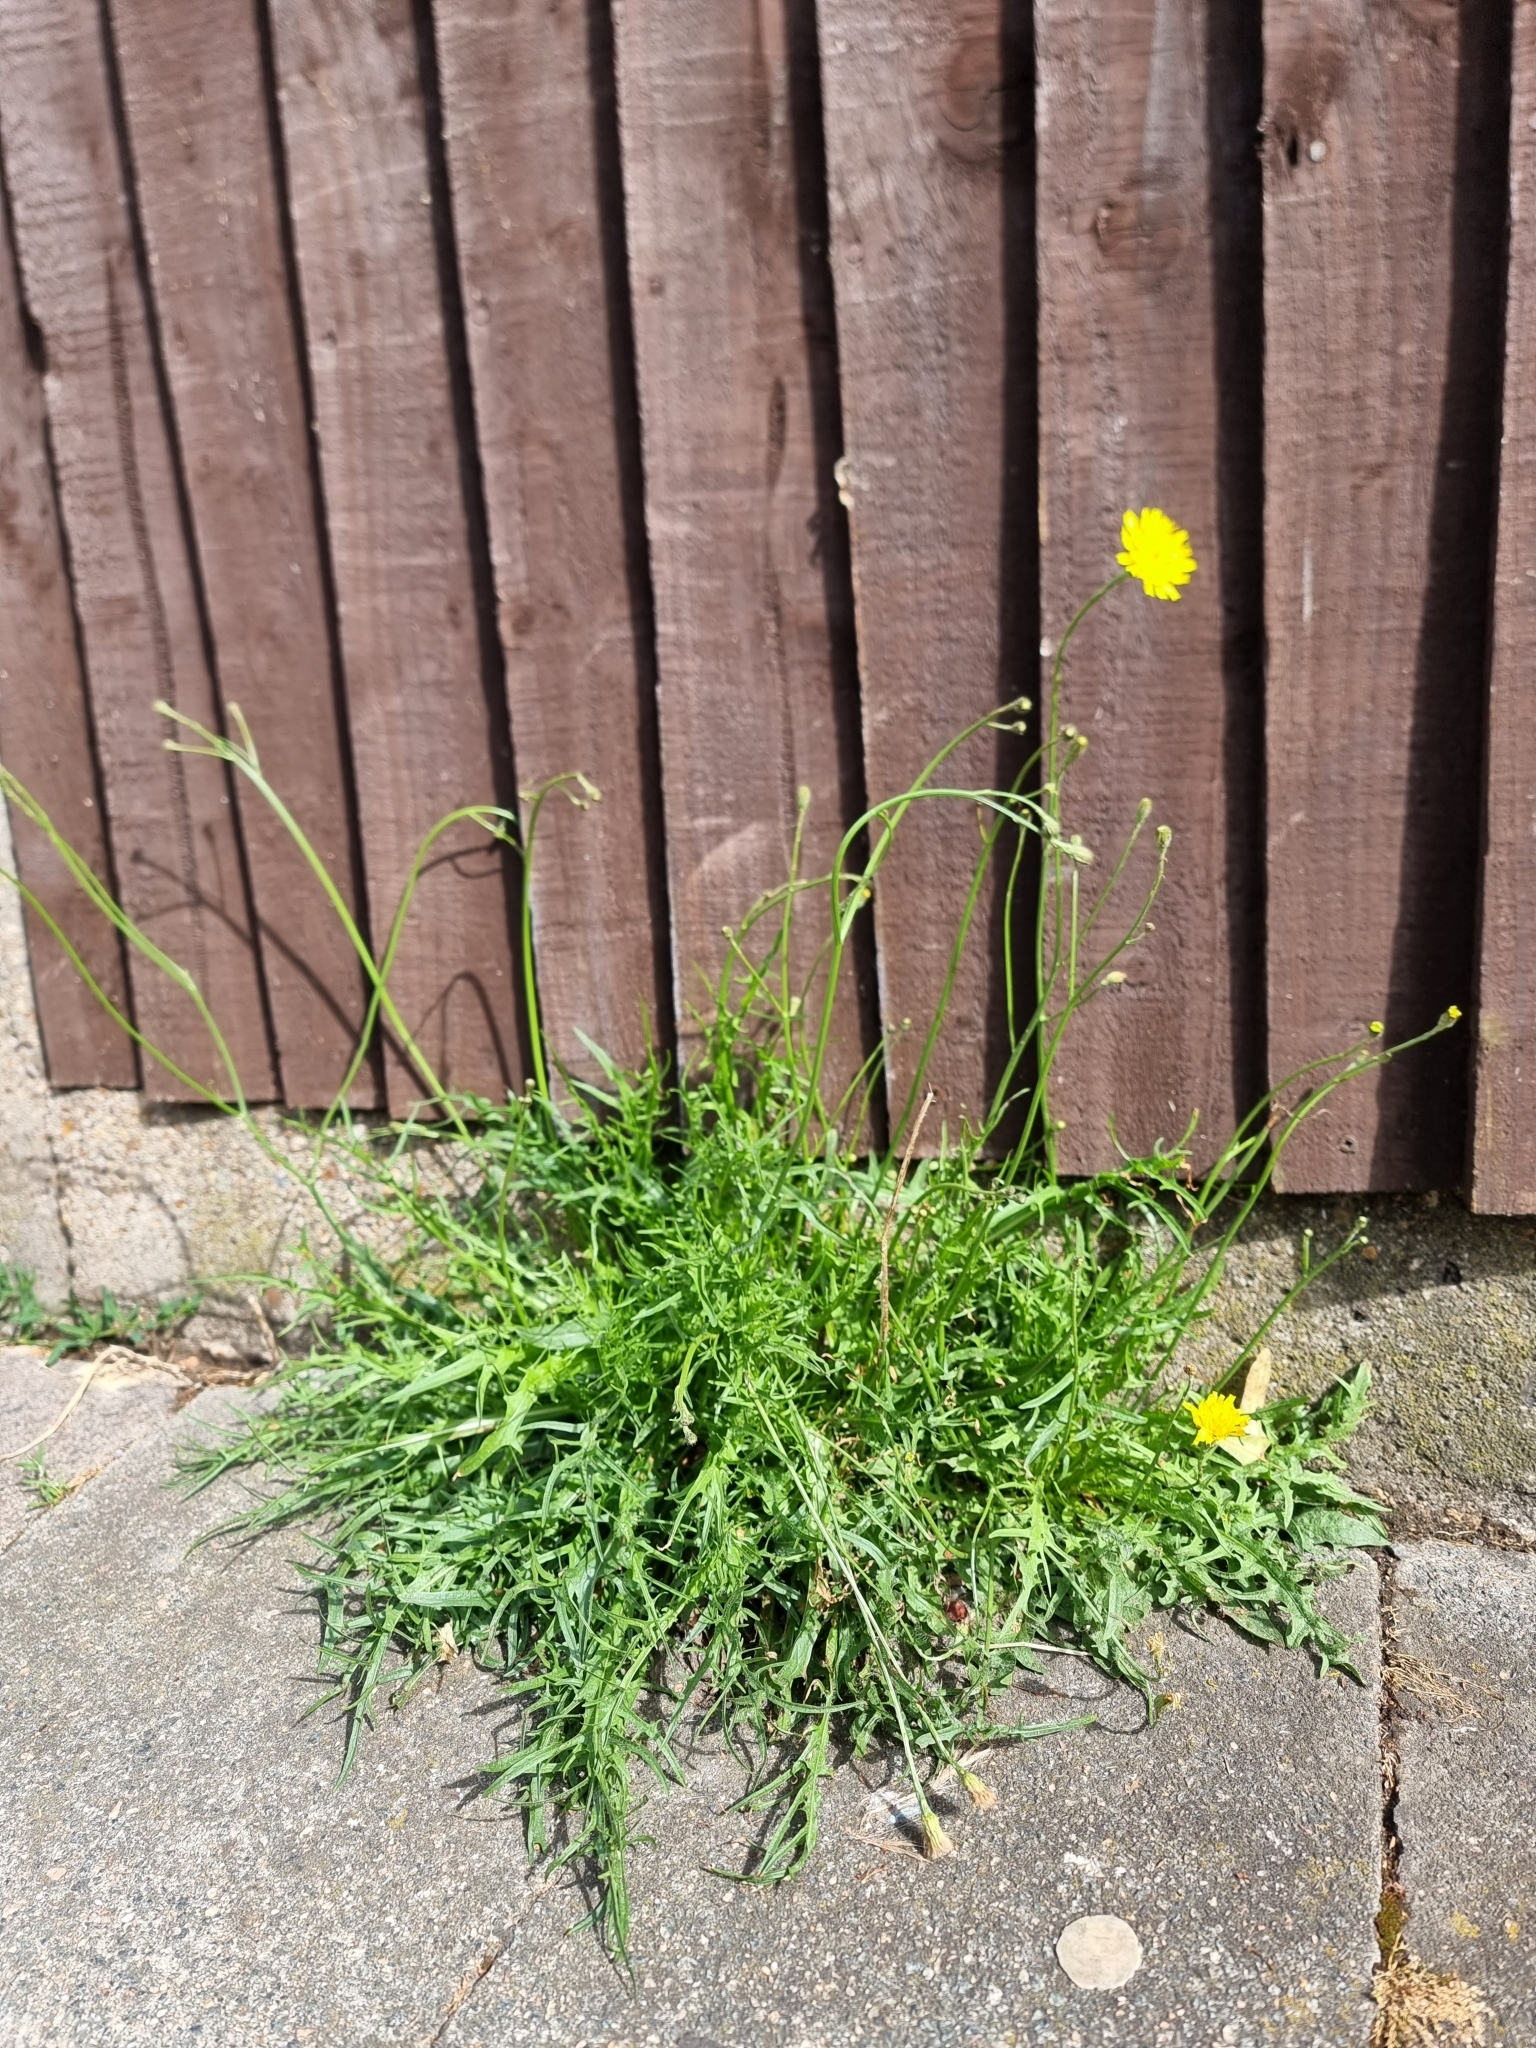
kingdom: Plantae
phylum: Tracheophyta
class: Magnoliopsida
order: Asterales
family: Asteraceae
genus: Scorzoneroides
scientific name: Scorzoneroides autumnalis
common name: Autumn hawkbit
